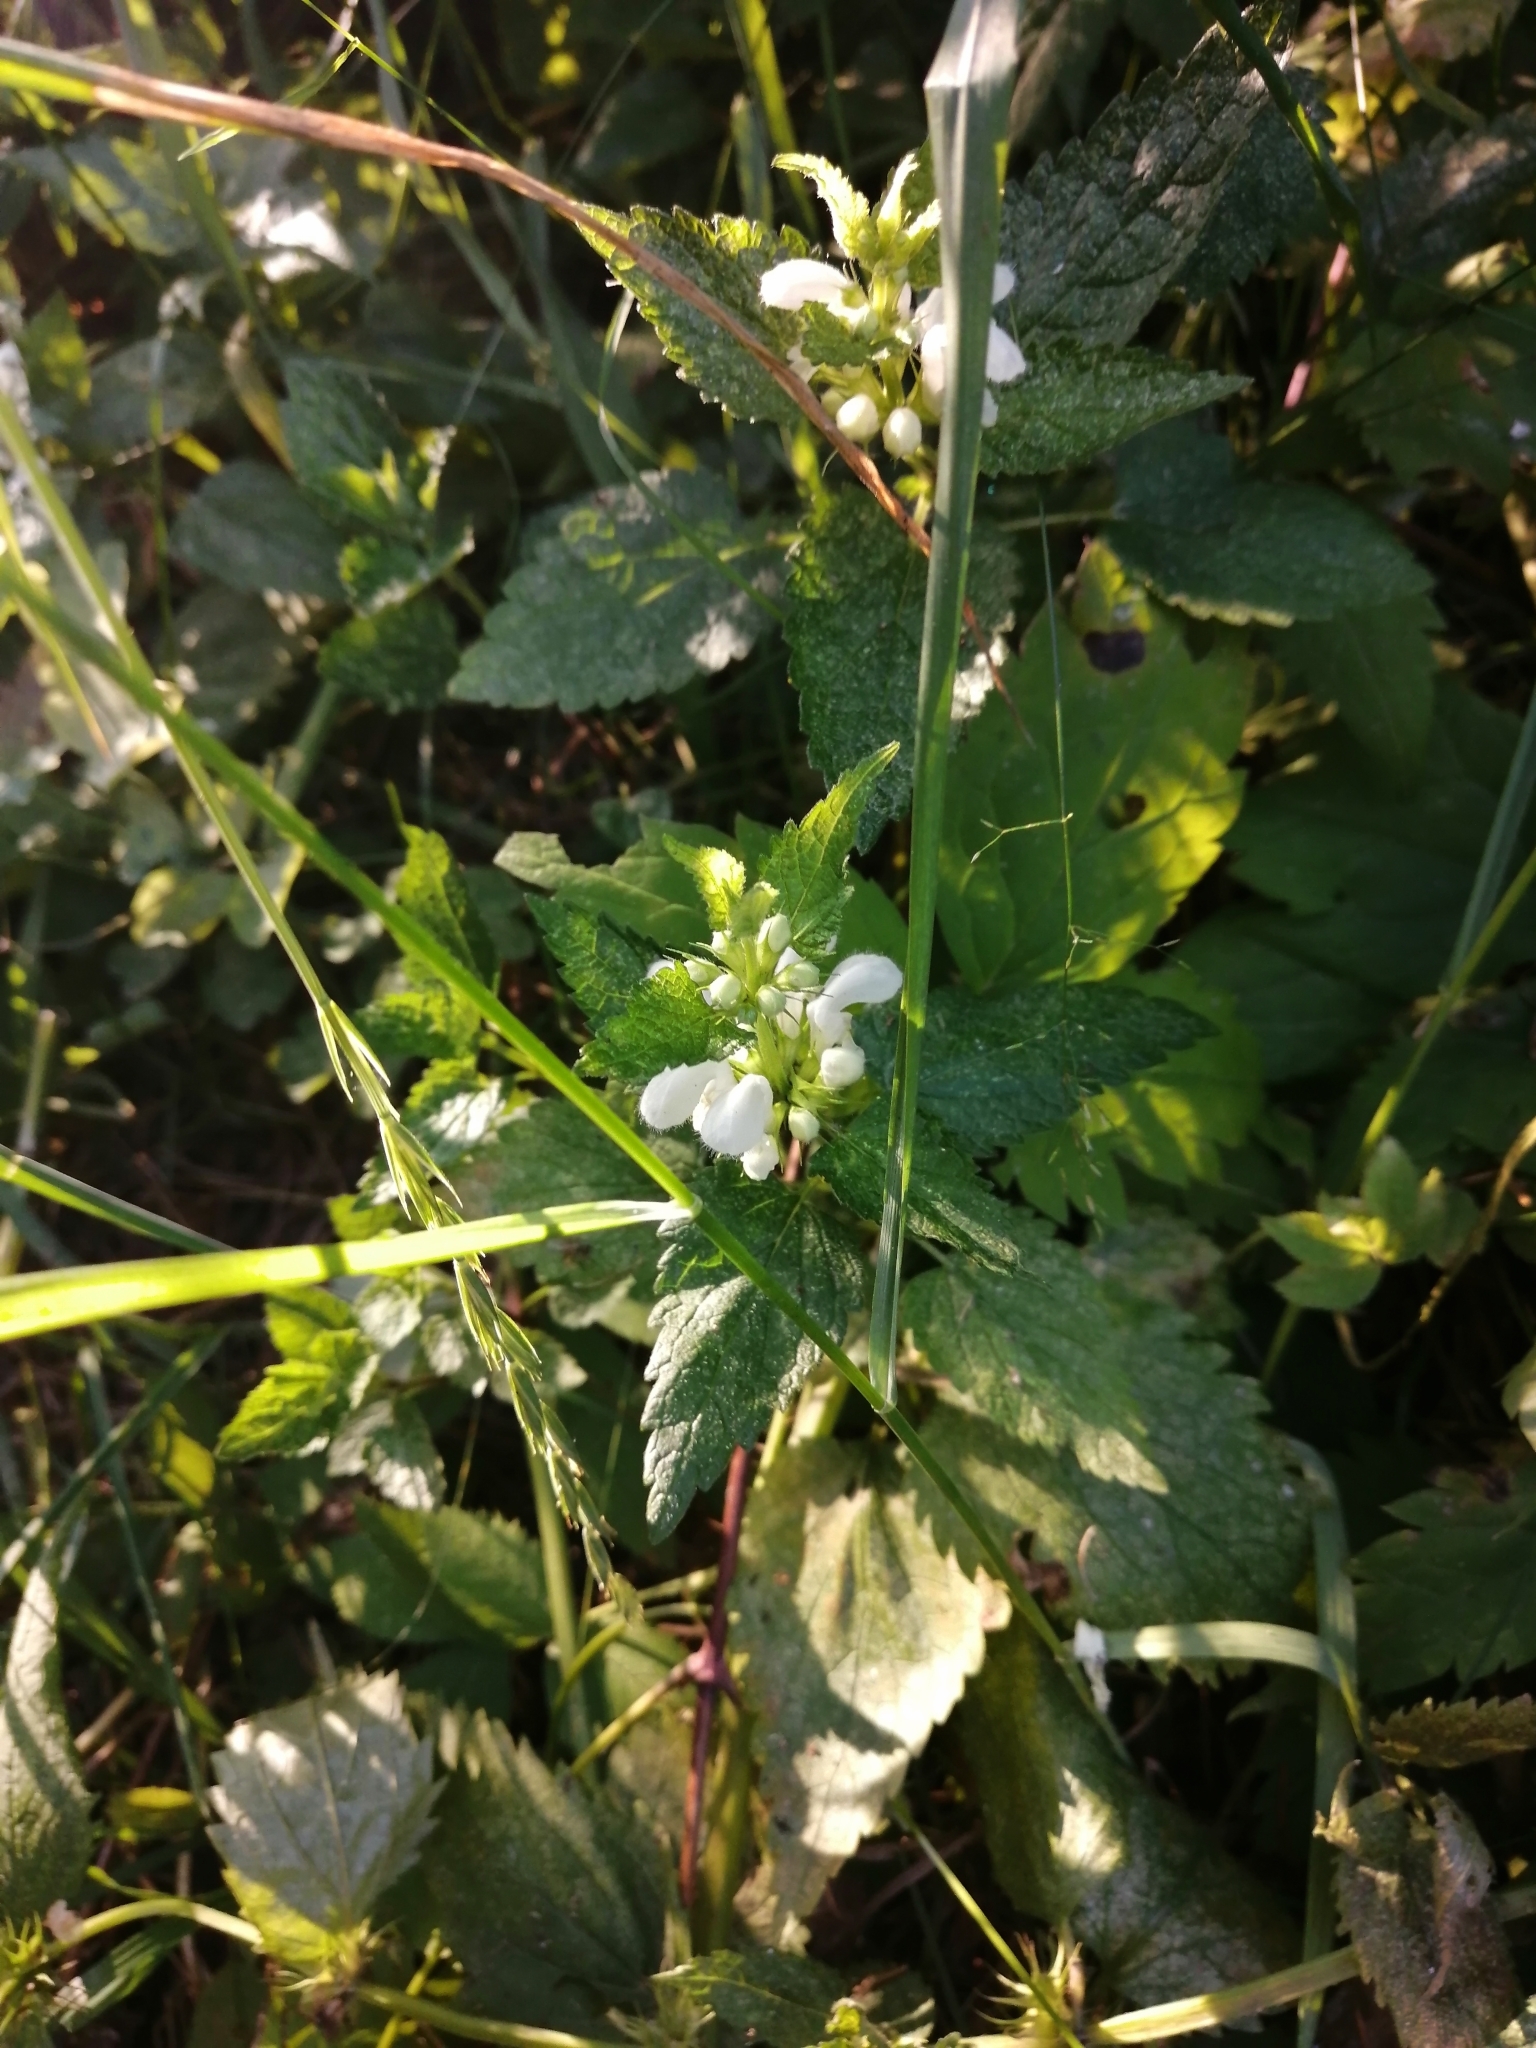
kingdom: Plantae
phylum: Tracheophyta
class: Magnoliopsida
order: Lamiales
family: Lamiaceae
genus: Lamium
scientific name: Lamium album
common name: White dead-nettle
